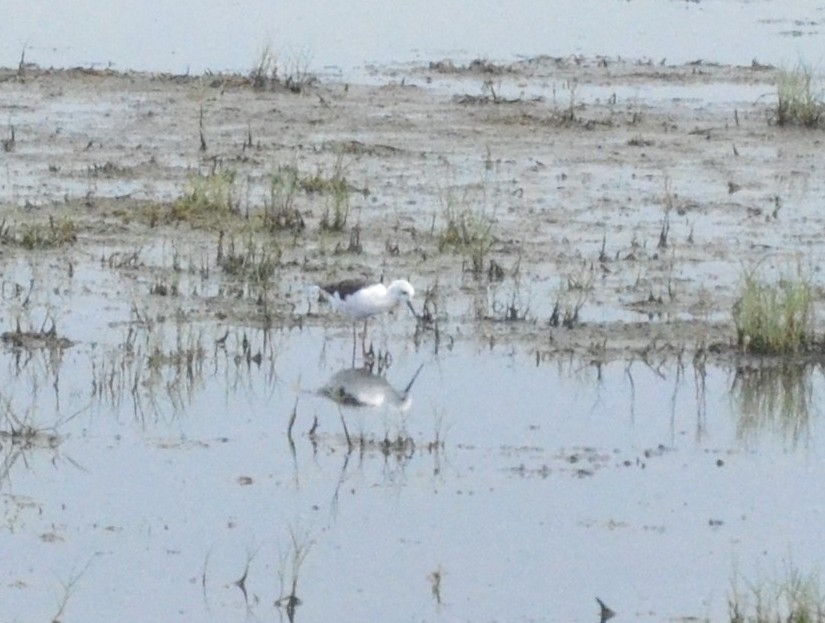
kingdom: Animalia
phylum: Chordata
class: Aves
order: Charadriiformes
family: Recurvirostridae
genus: Himantopus
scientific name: Himantopus himantopus
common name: Black-winged stilt
